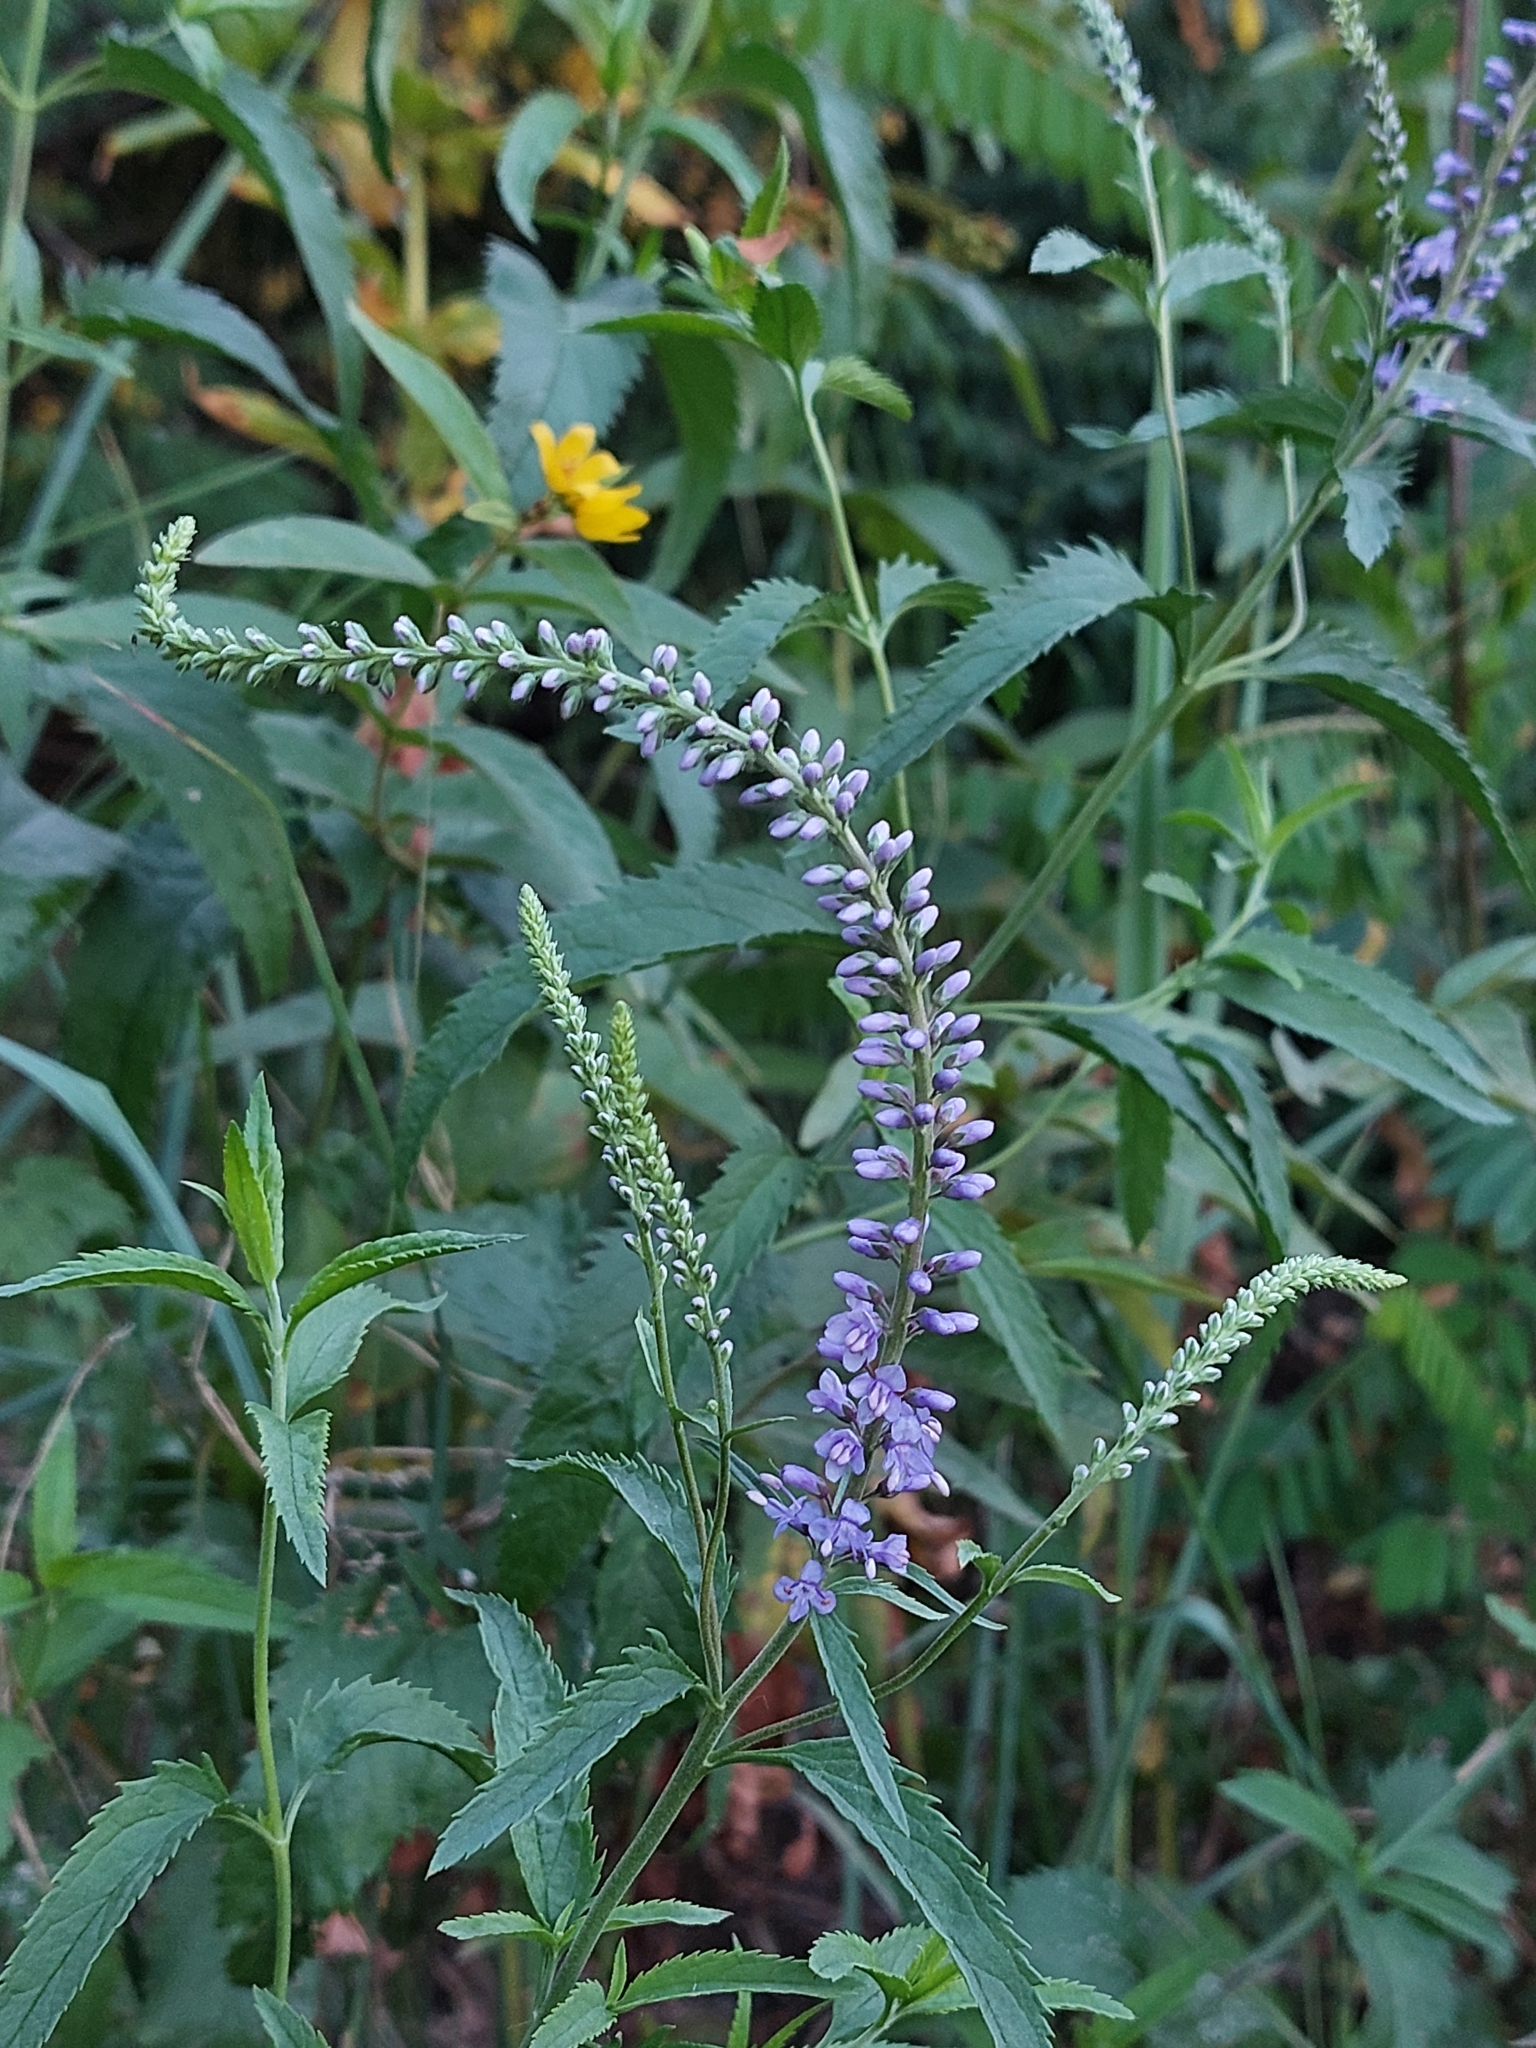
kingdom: Plantae
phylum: Tracheophyta
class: Magnoliopsida
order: Lamiales
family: Plantaginaceae
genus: Veronica
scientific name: Veronica longifolia
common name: Garden speedwell
